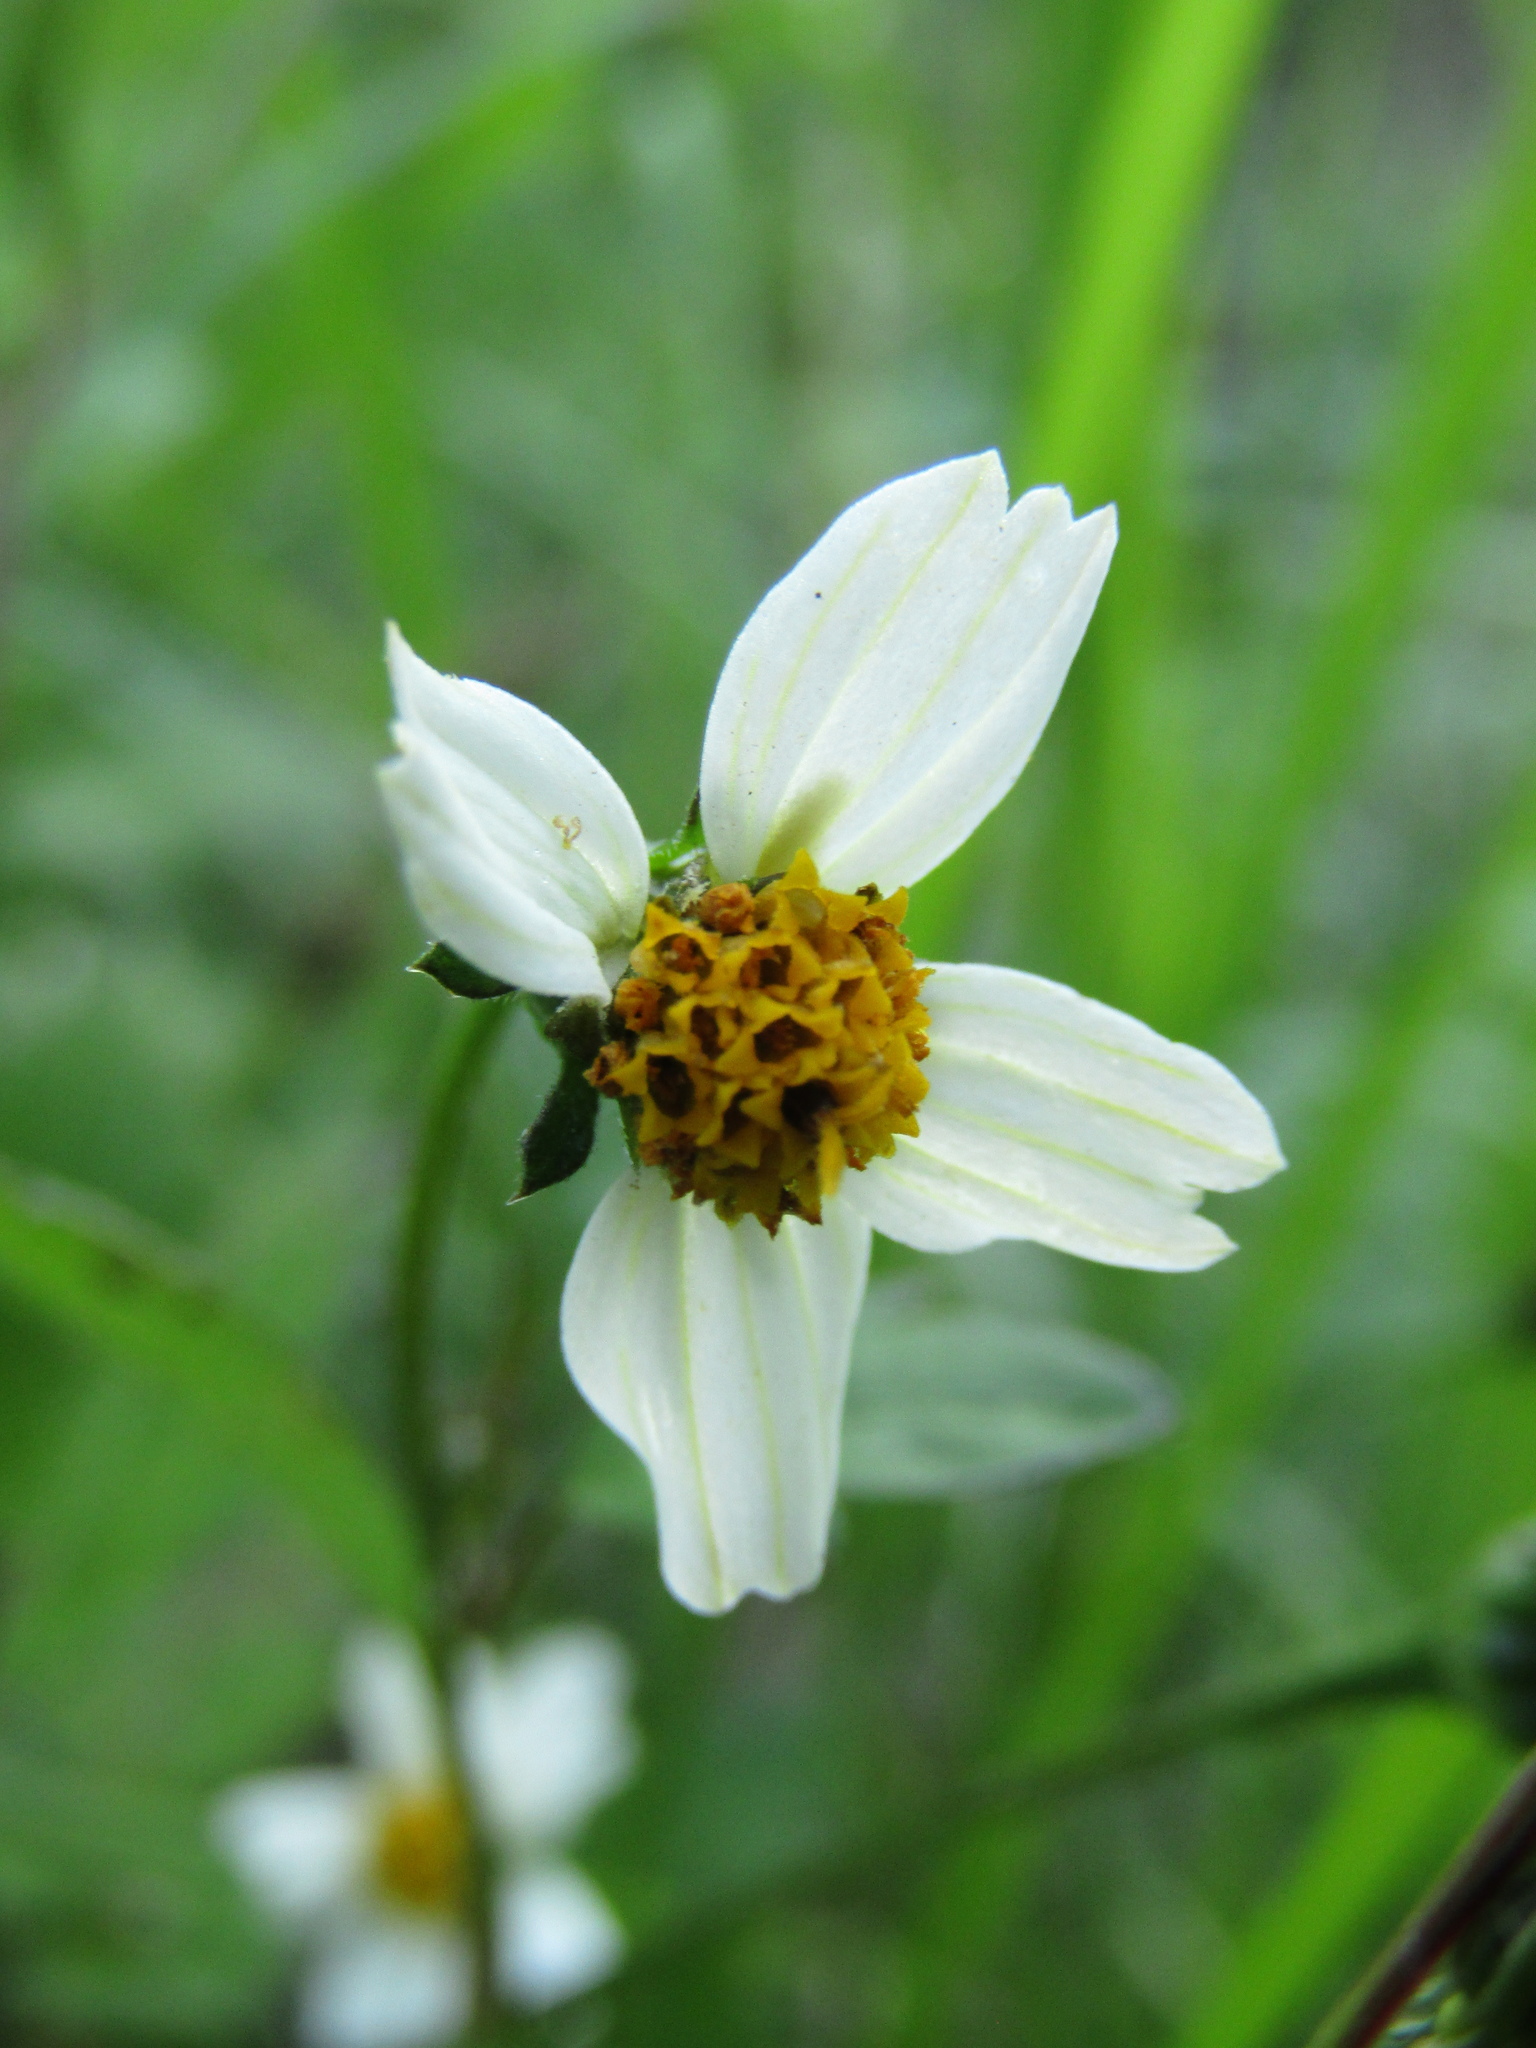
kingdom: Plantae
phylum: Tracheophyta
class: Magnoliopsida
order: Asterales
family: Asteraceae
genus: Bidens
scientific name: Bidens pilosa
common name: Black-jack
